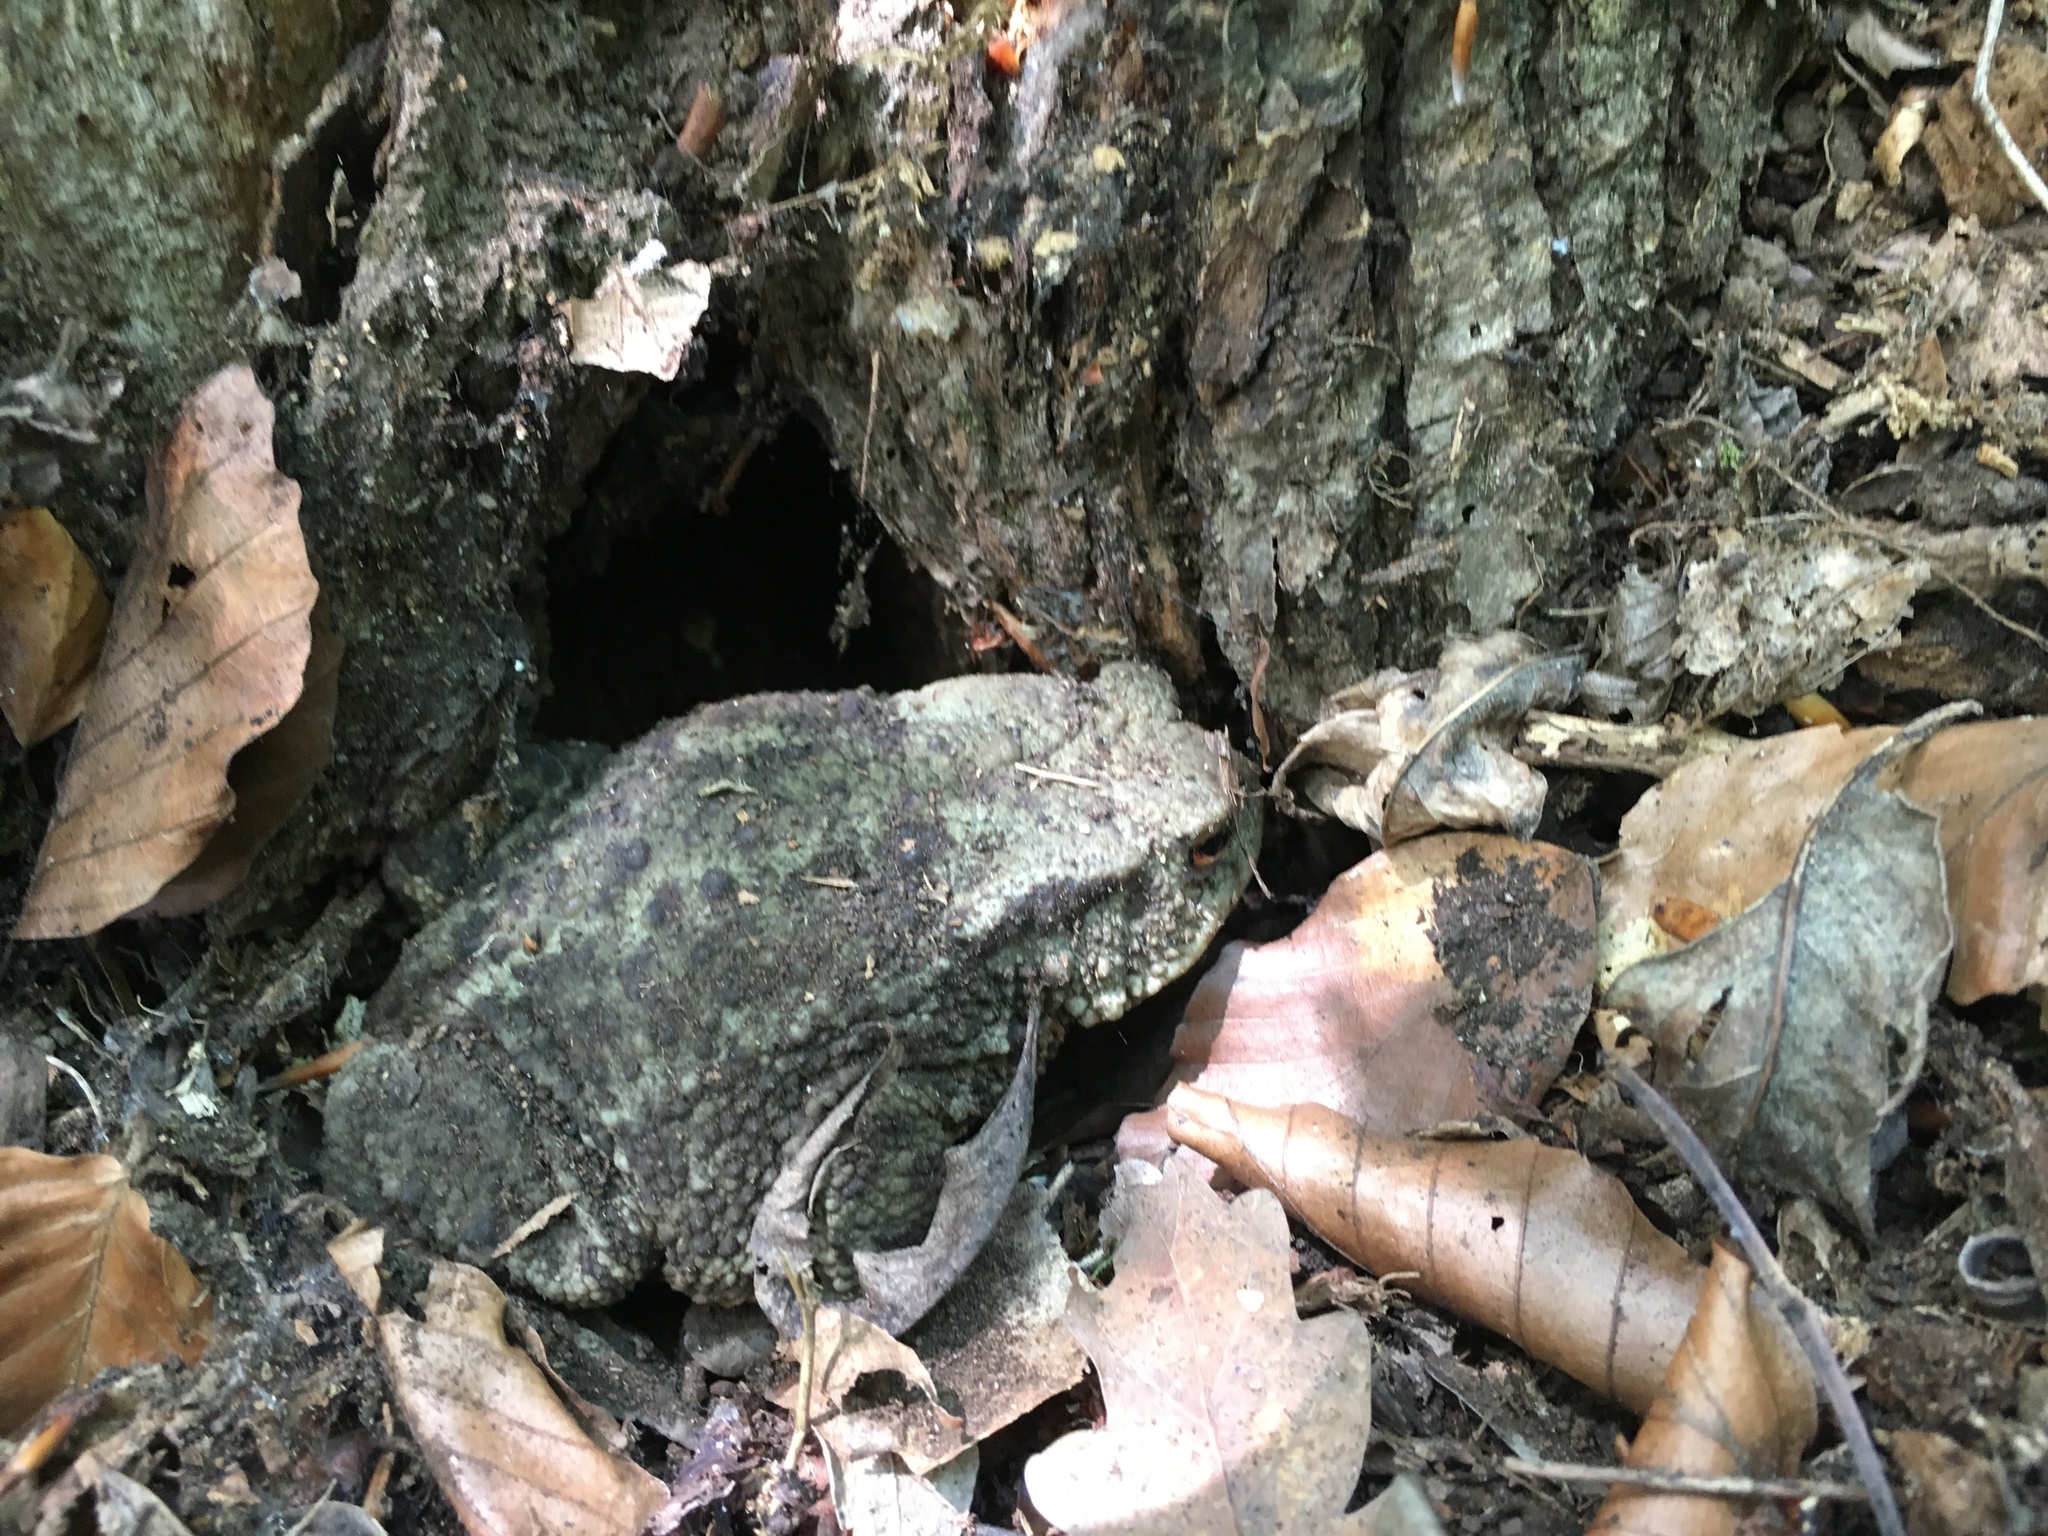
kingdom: Animalia
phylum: Chordata
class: Amphibia
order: Anura
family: Bufonidae
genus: Bufo
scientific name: Bufo bufo
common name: Common toad
